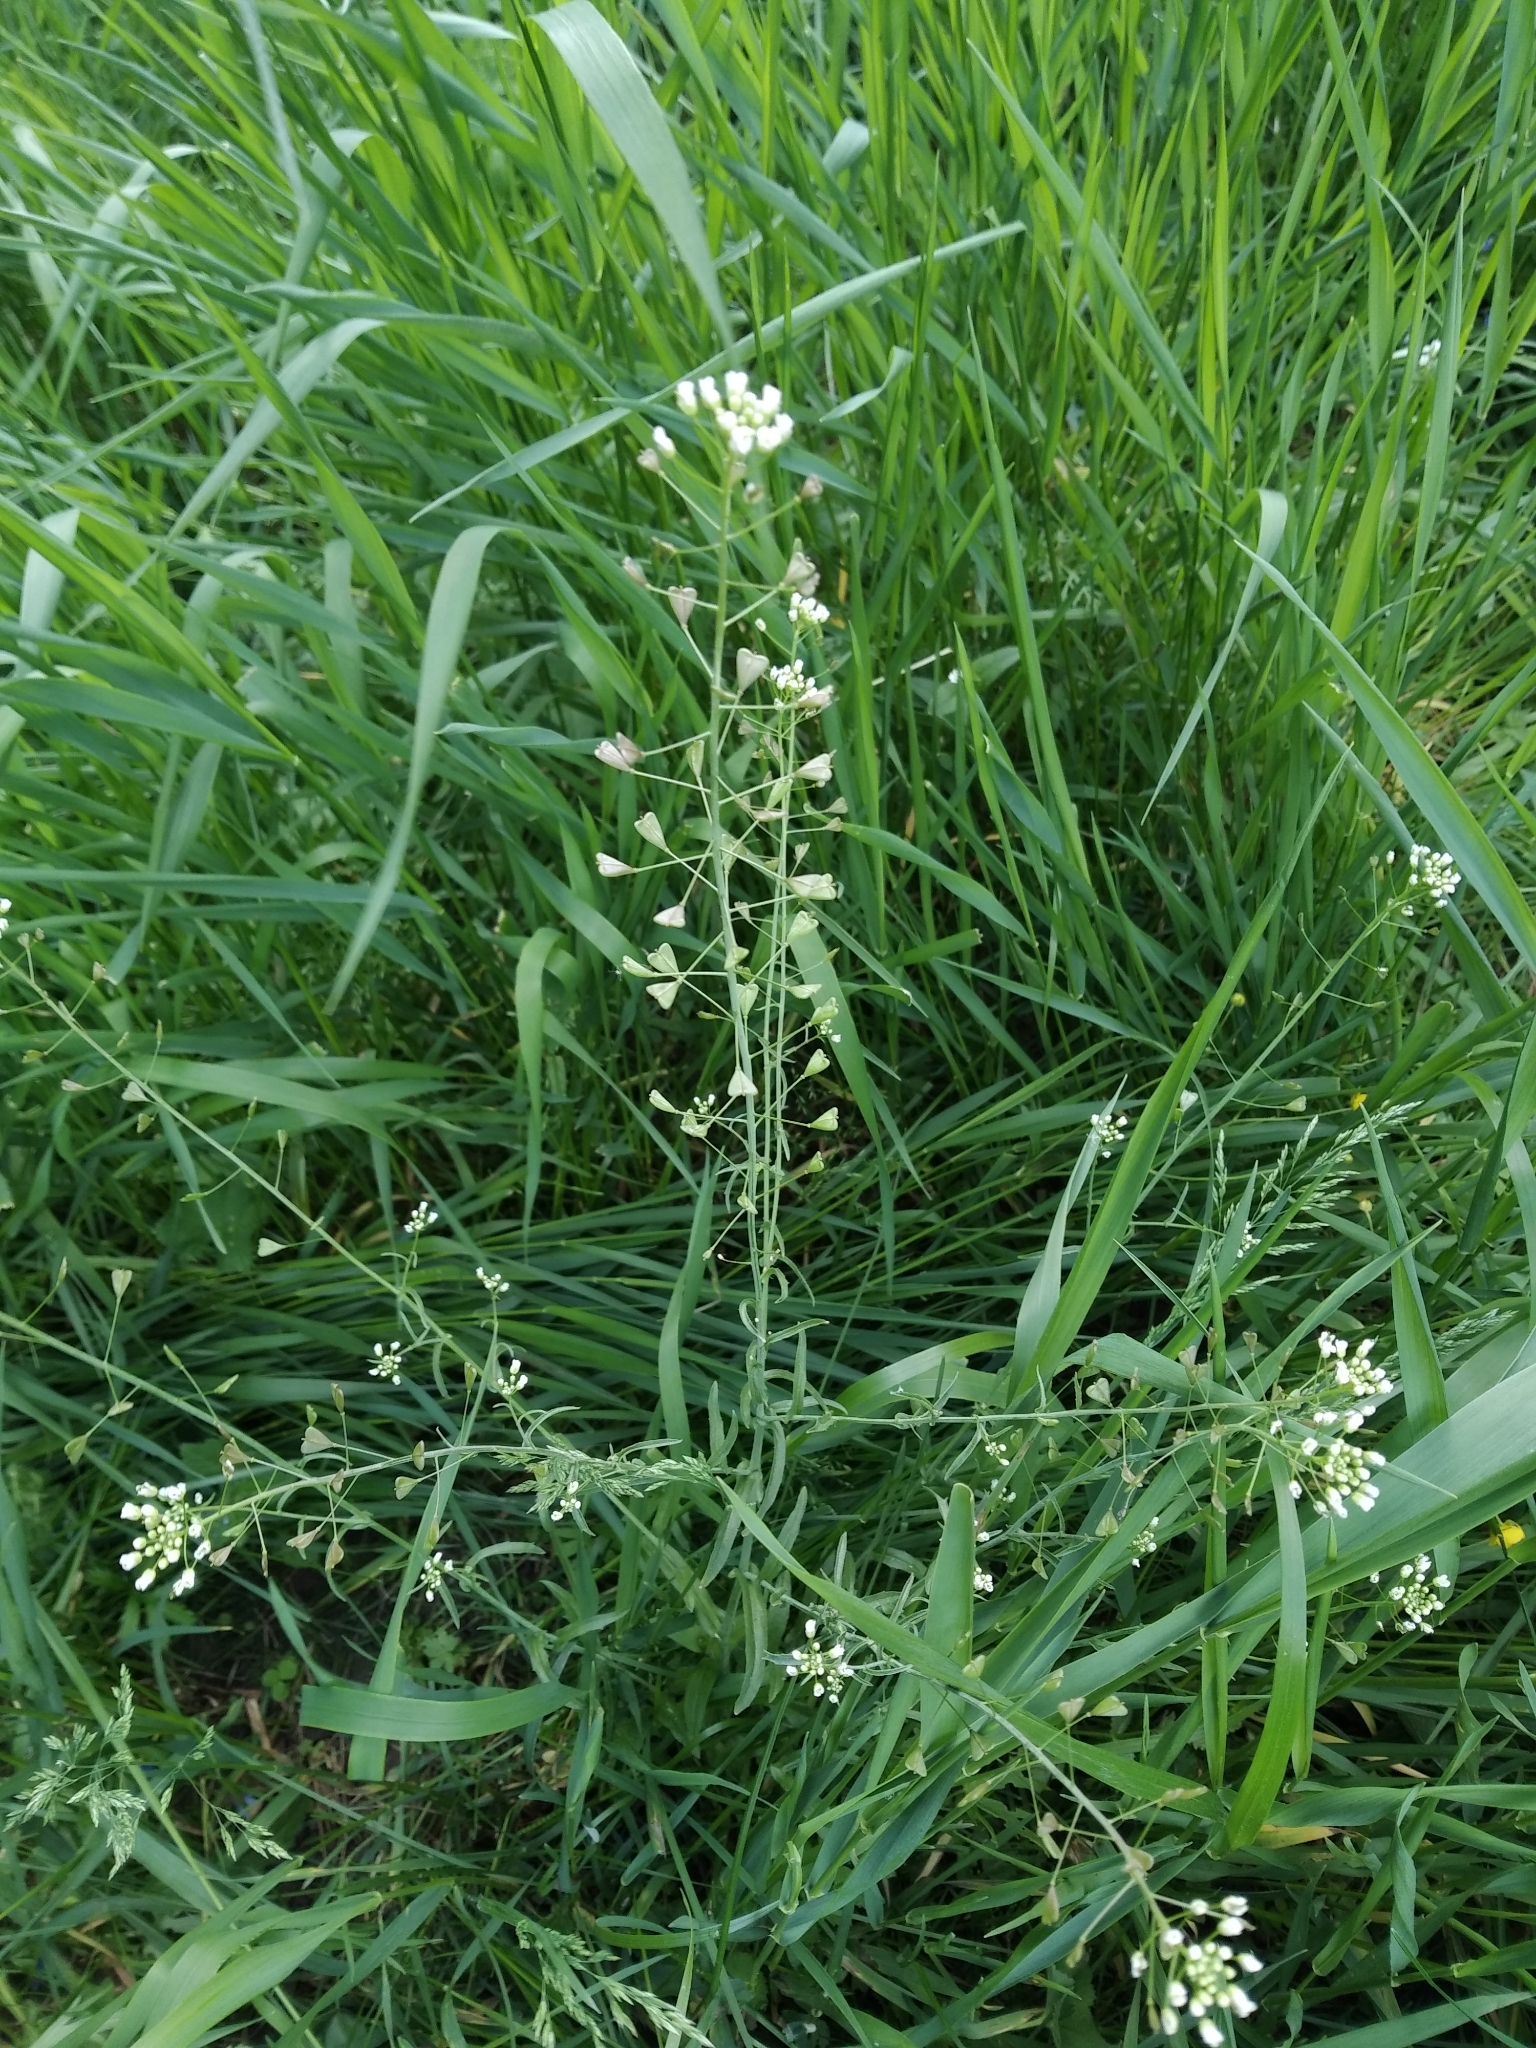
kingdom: Plantae
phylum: Tracheophyta
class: Magnoliopsida
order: Brassicales
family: Brassicaceae
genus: Capsella
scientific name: Capsella bursa-pastoris
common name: Shepherd's purse
